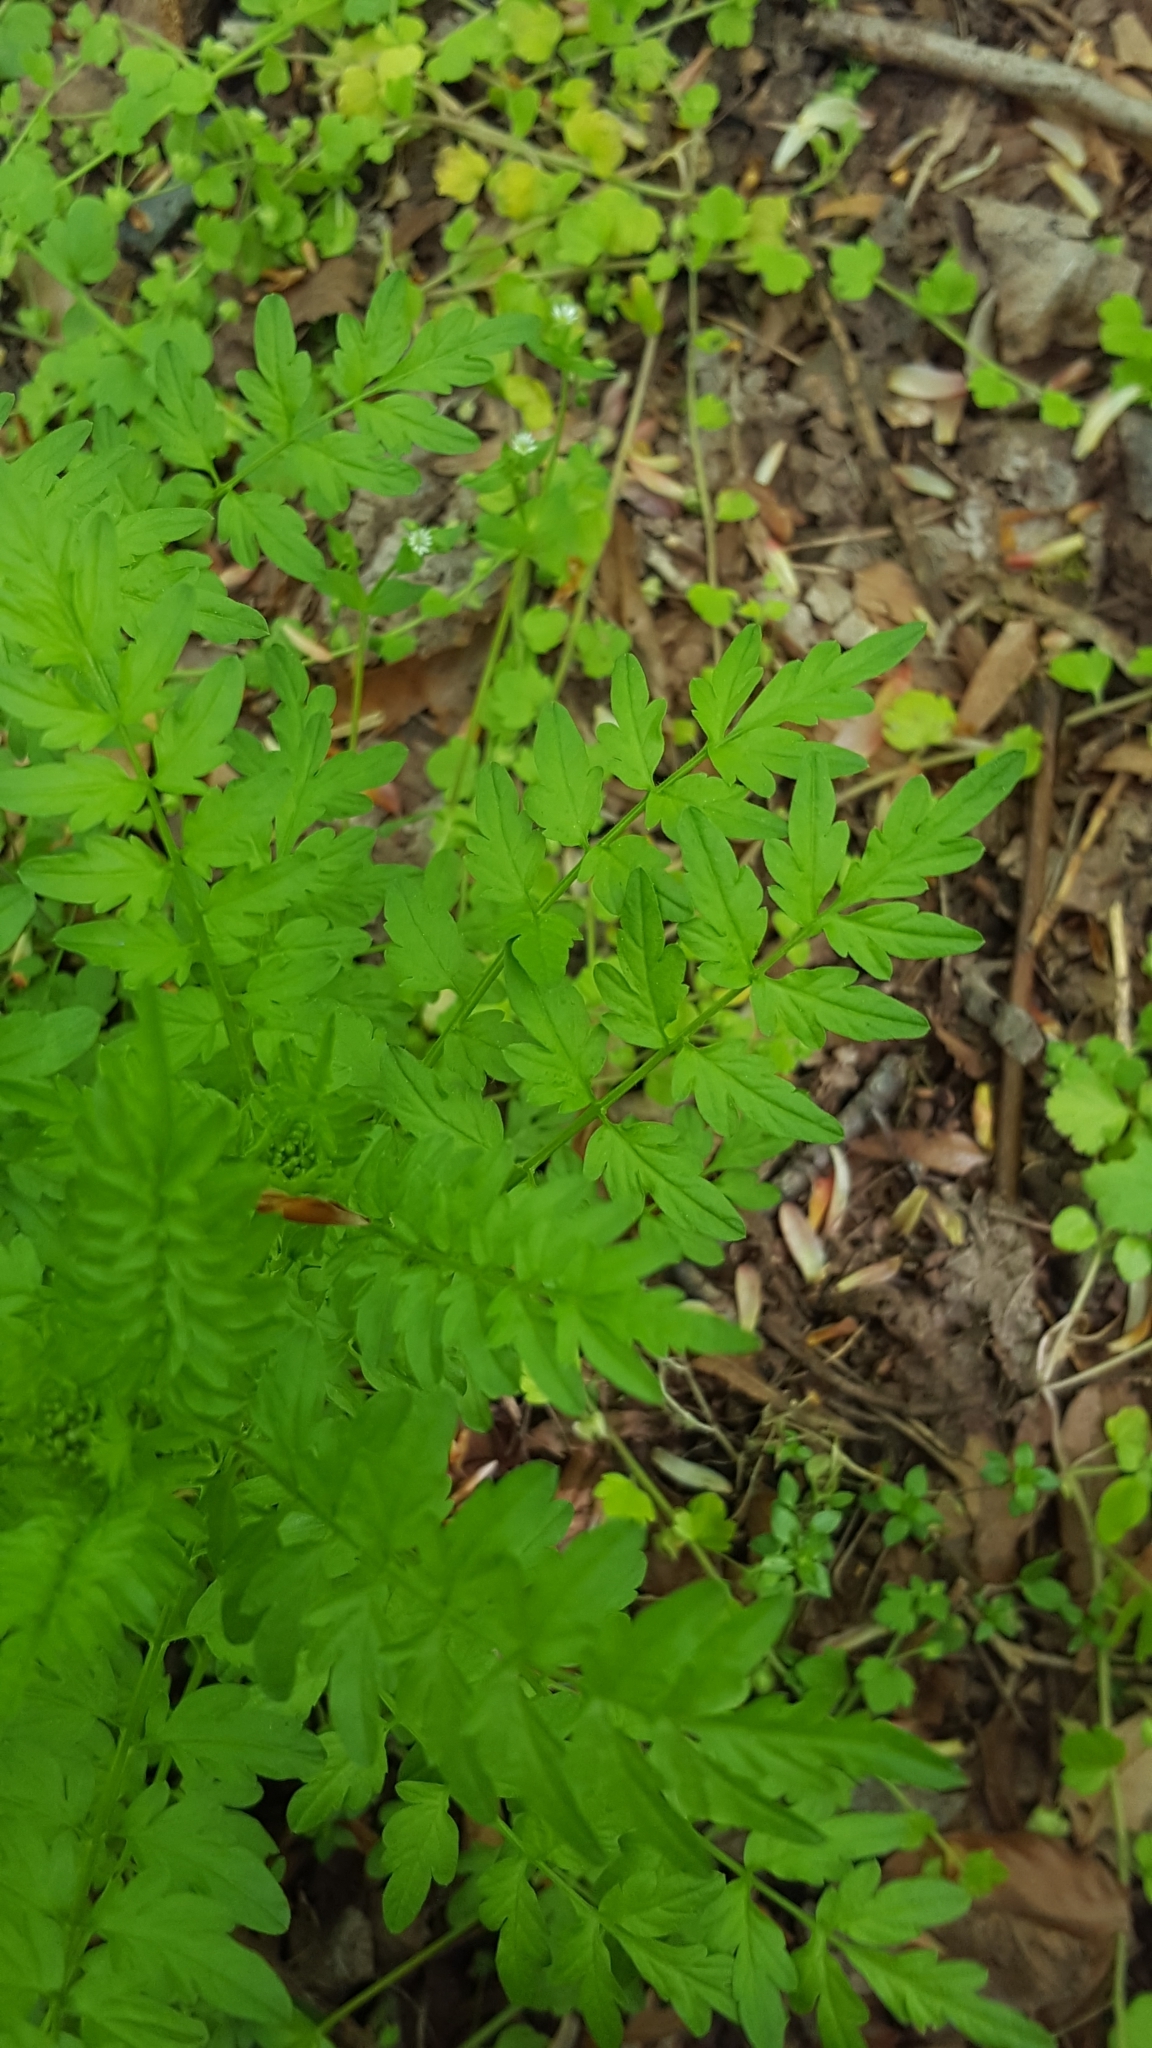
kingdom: Plantae
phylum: Tracheophyta
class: Magnoliopsida
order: Brassicales
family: Brassicaceae
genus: Cardamine
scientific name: Cardamine impatiens
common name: Narrow-leaved bitter-cress
